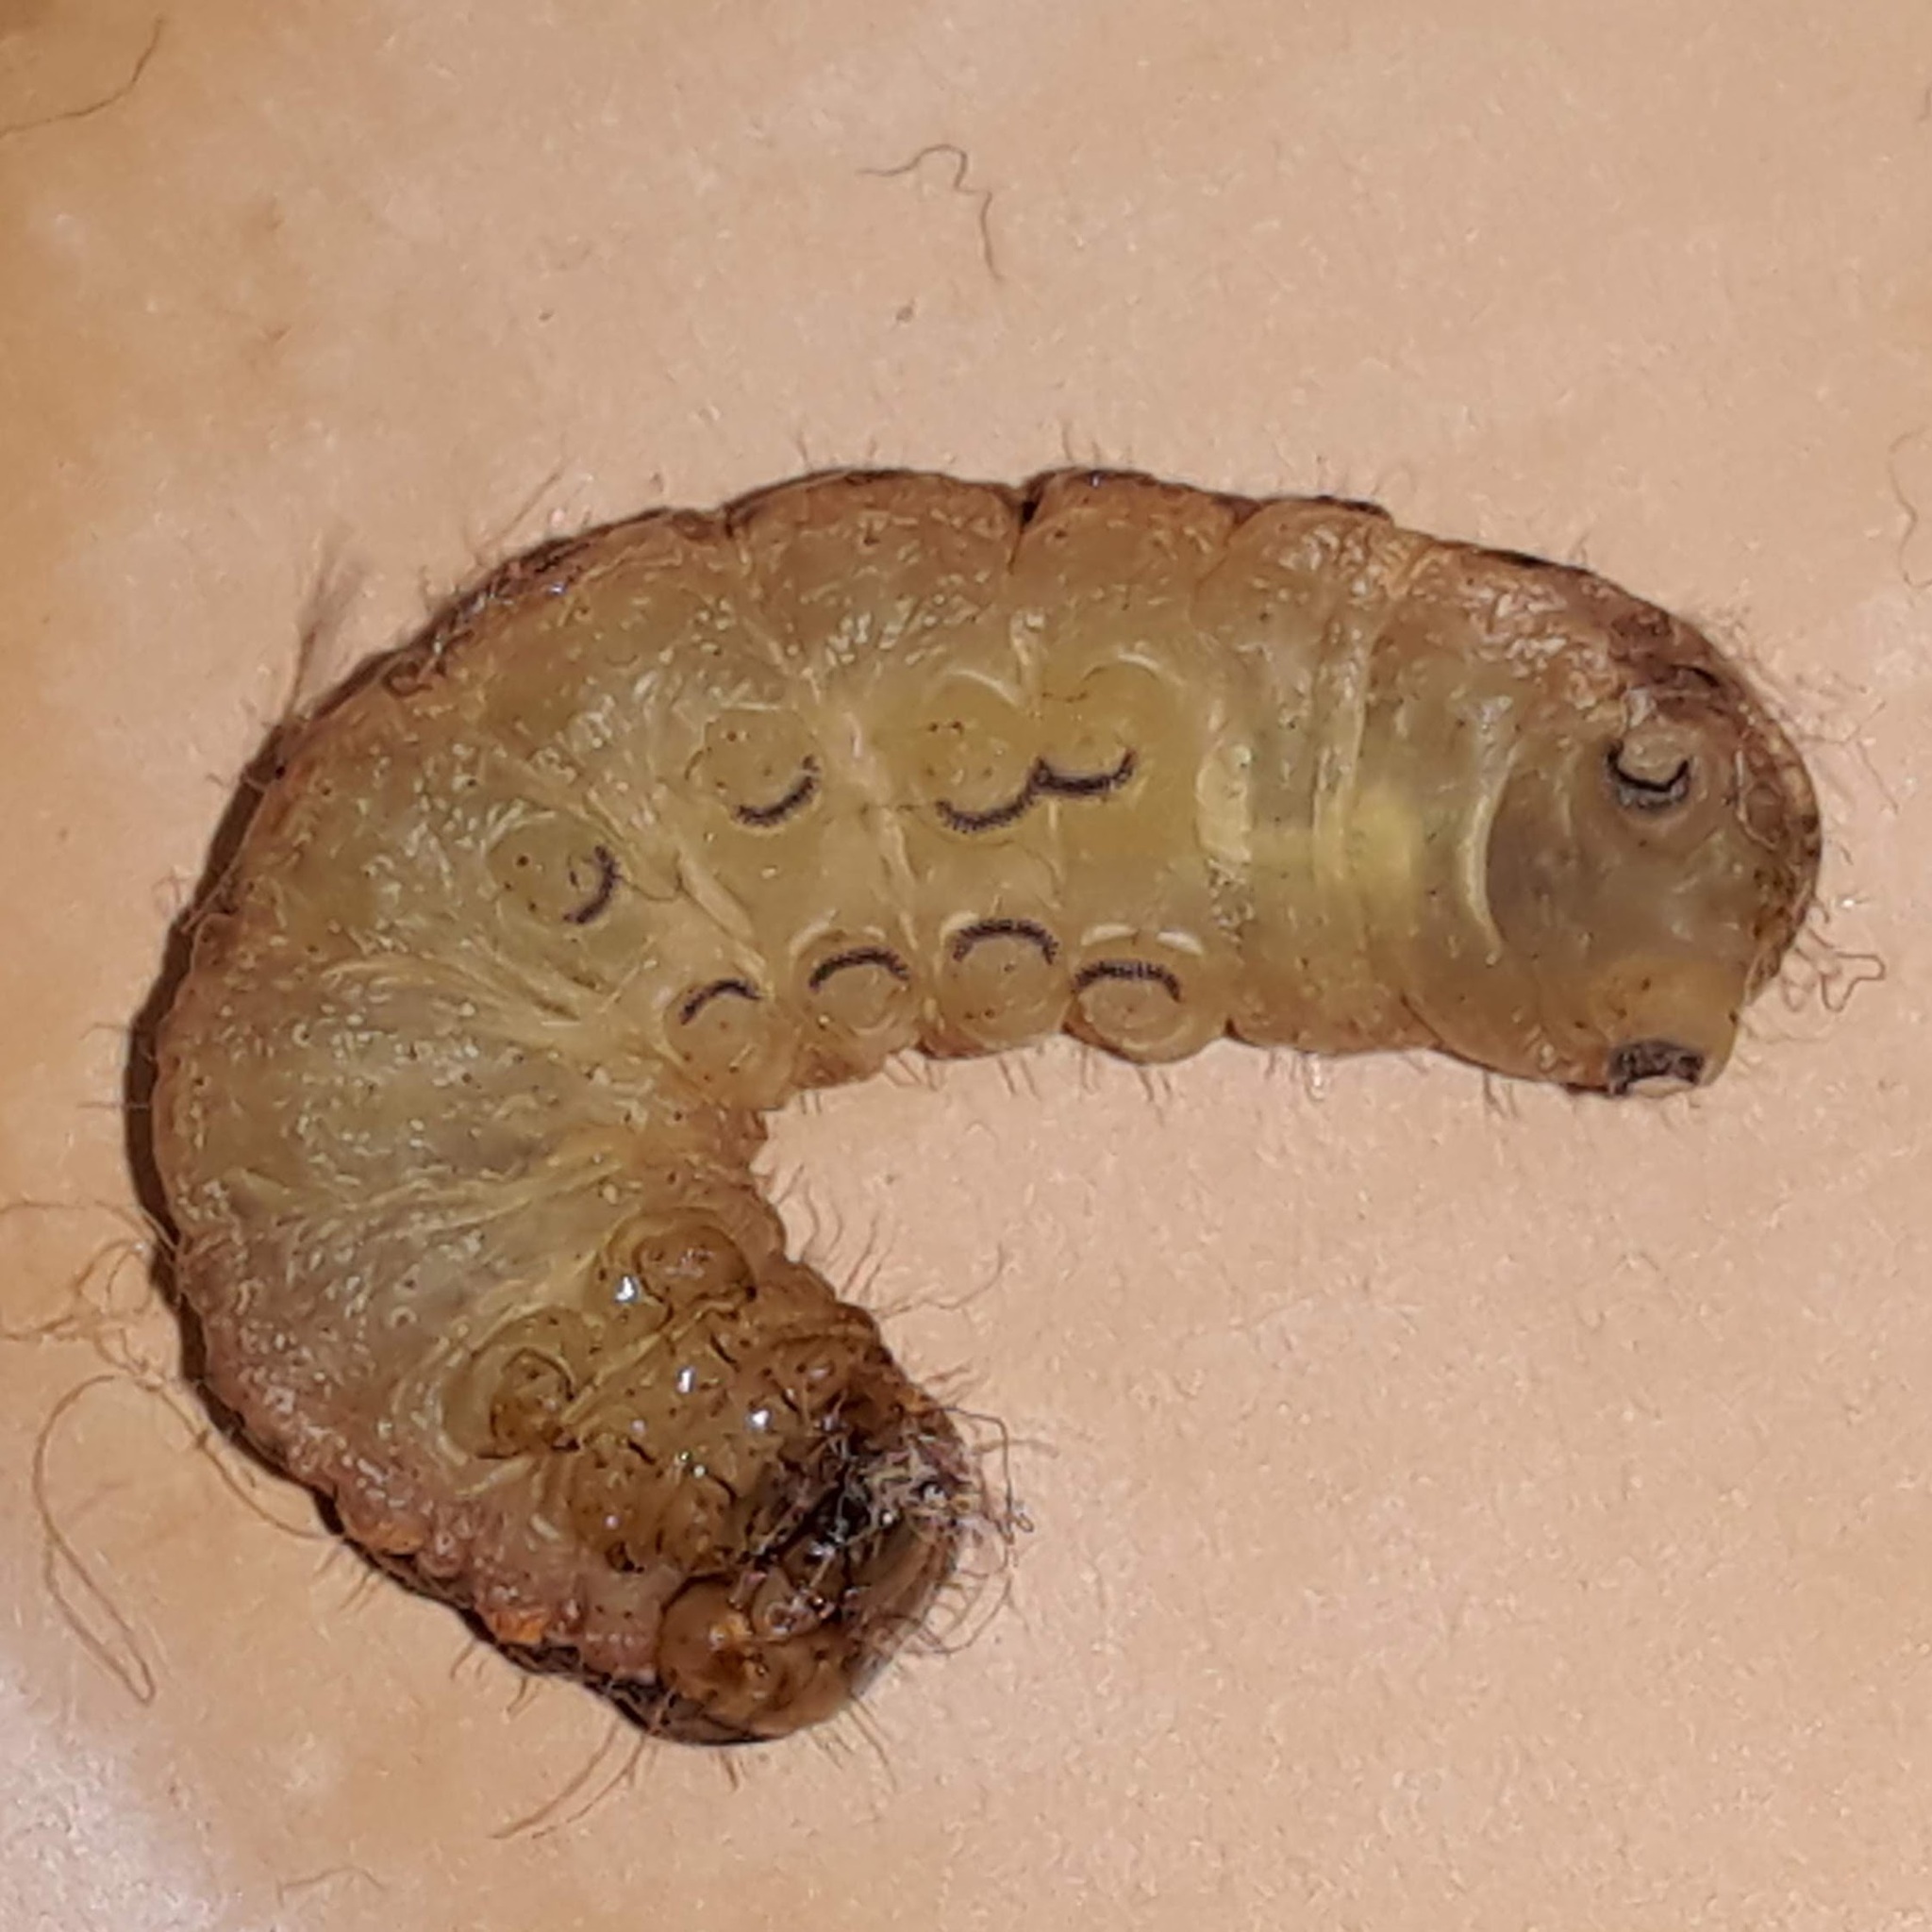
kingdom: Animalia
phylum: Arthropoda
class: Insecta
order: Lepidoptera
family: Noctuidae
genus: Noctua
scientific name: Noctua pronuba
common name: Large yellow underwing
